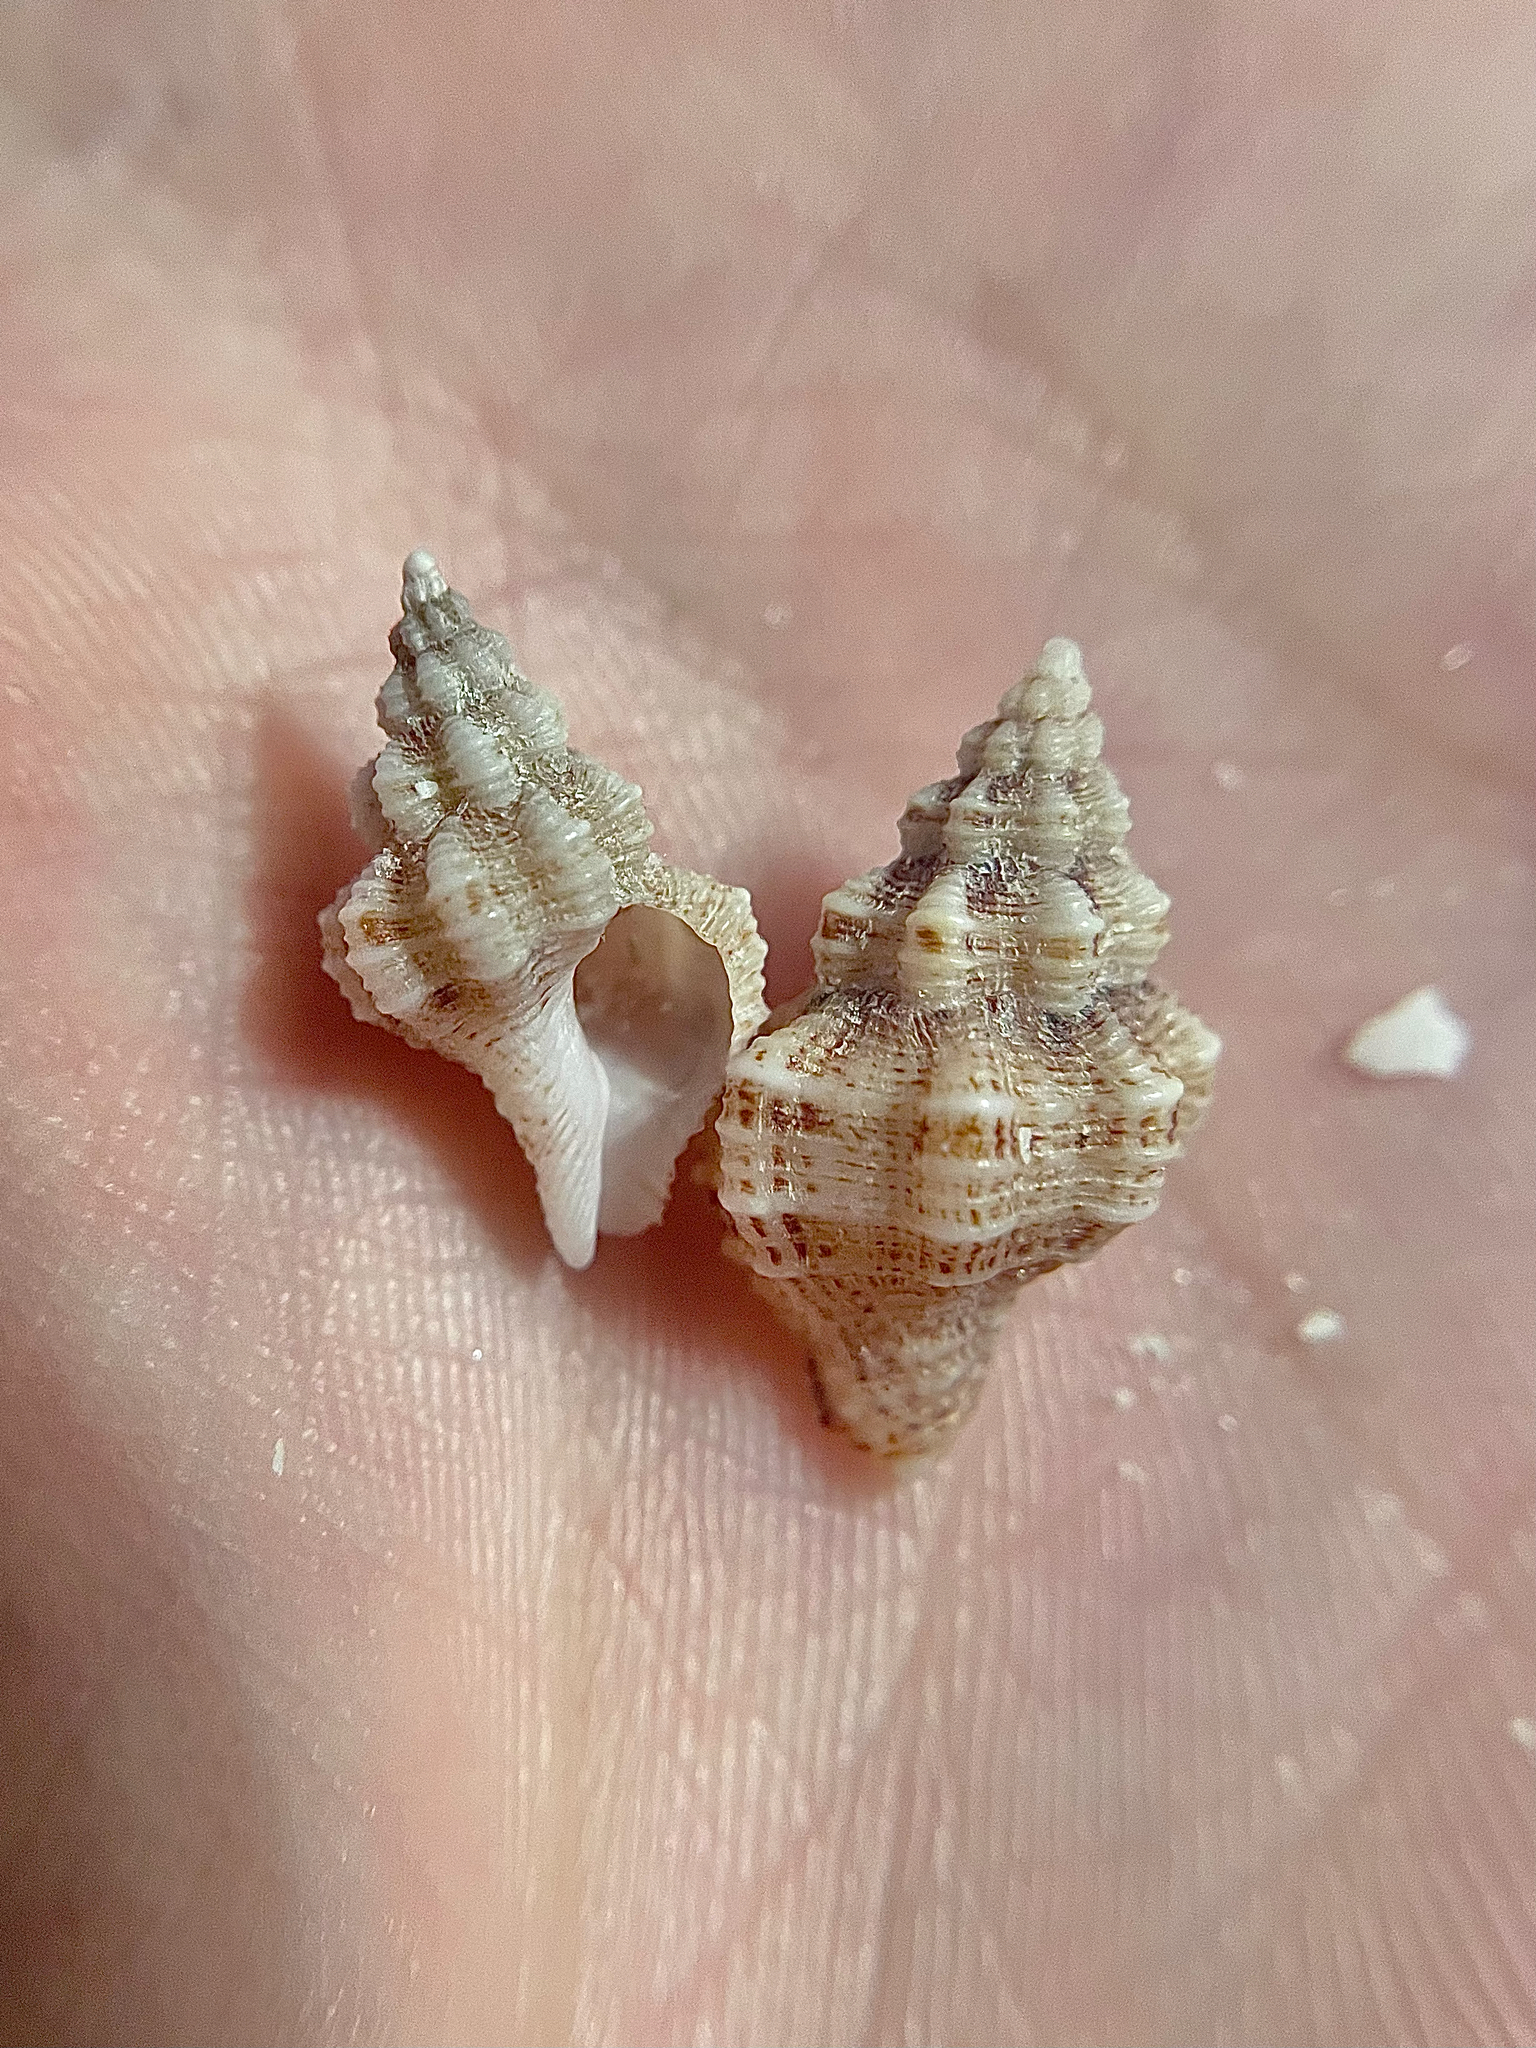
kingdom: Animalia
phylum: Mollusca
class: Gastropoda
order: Neogastropoda
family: Pisaniidae
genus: Hesperisternia
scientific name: Hesperisternia multangulus
